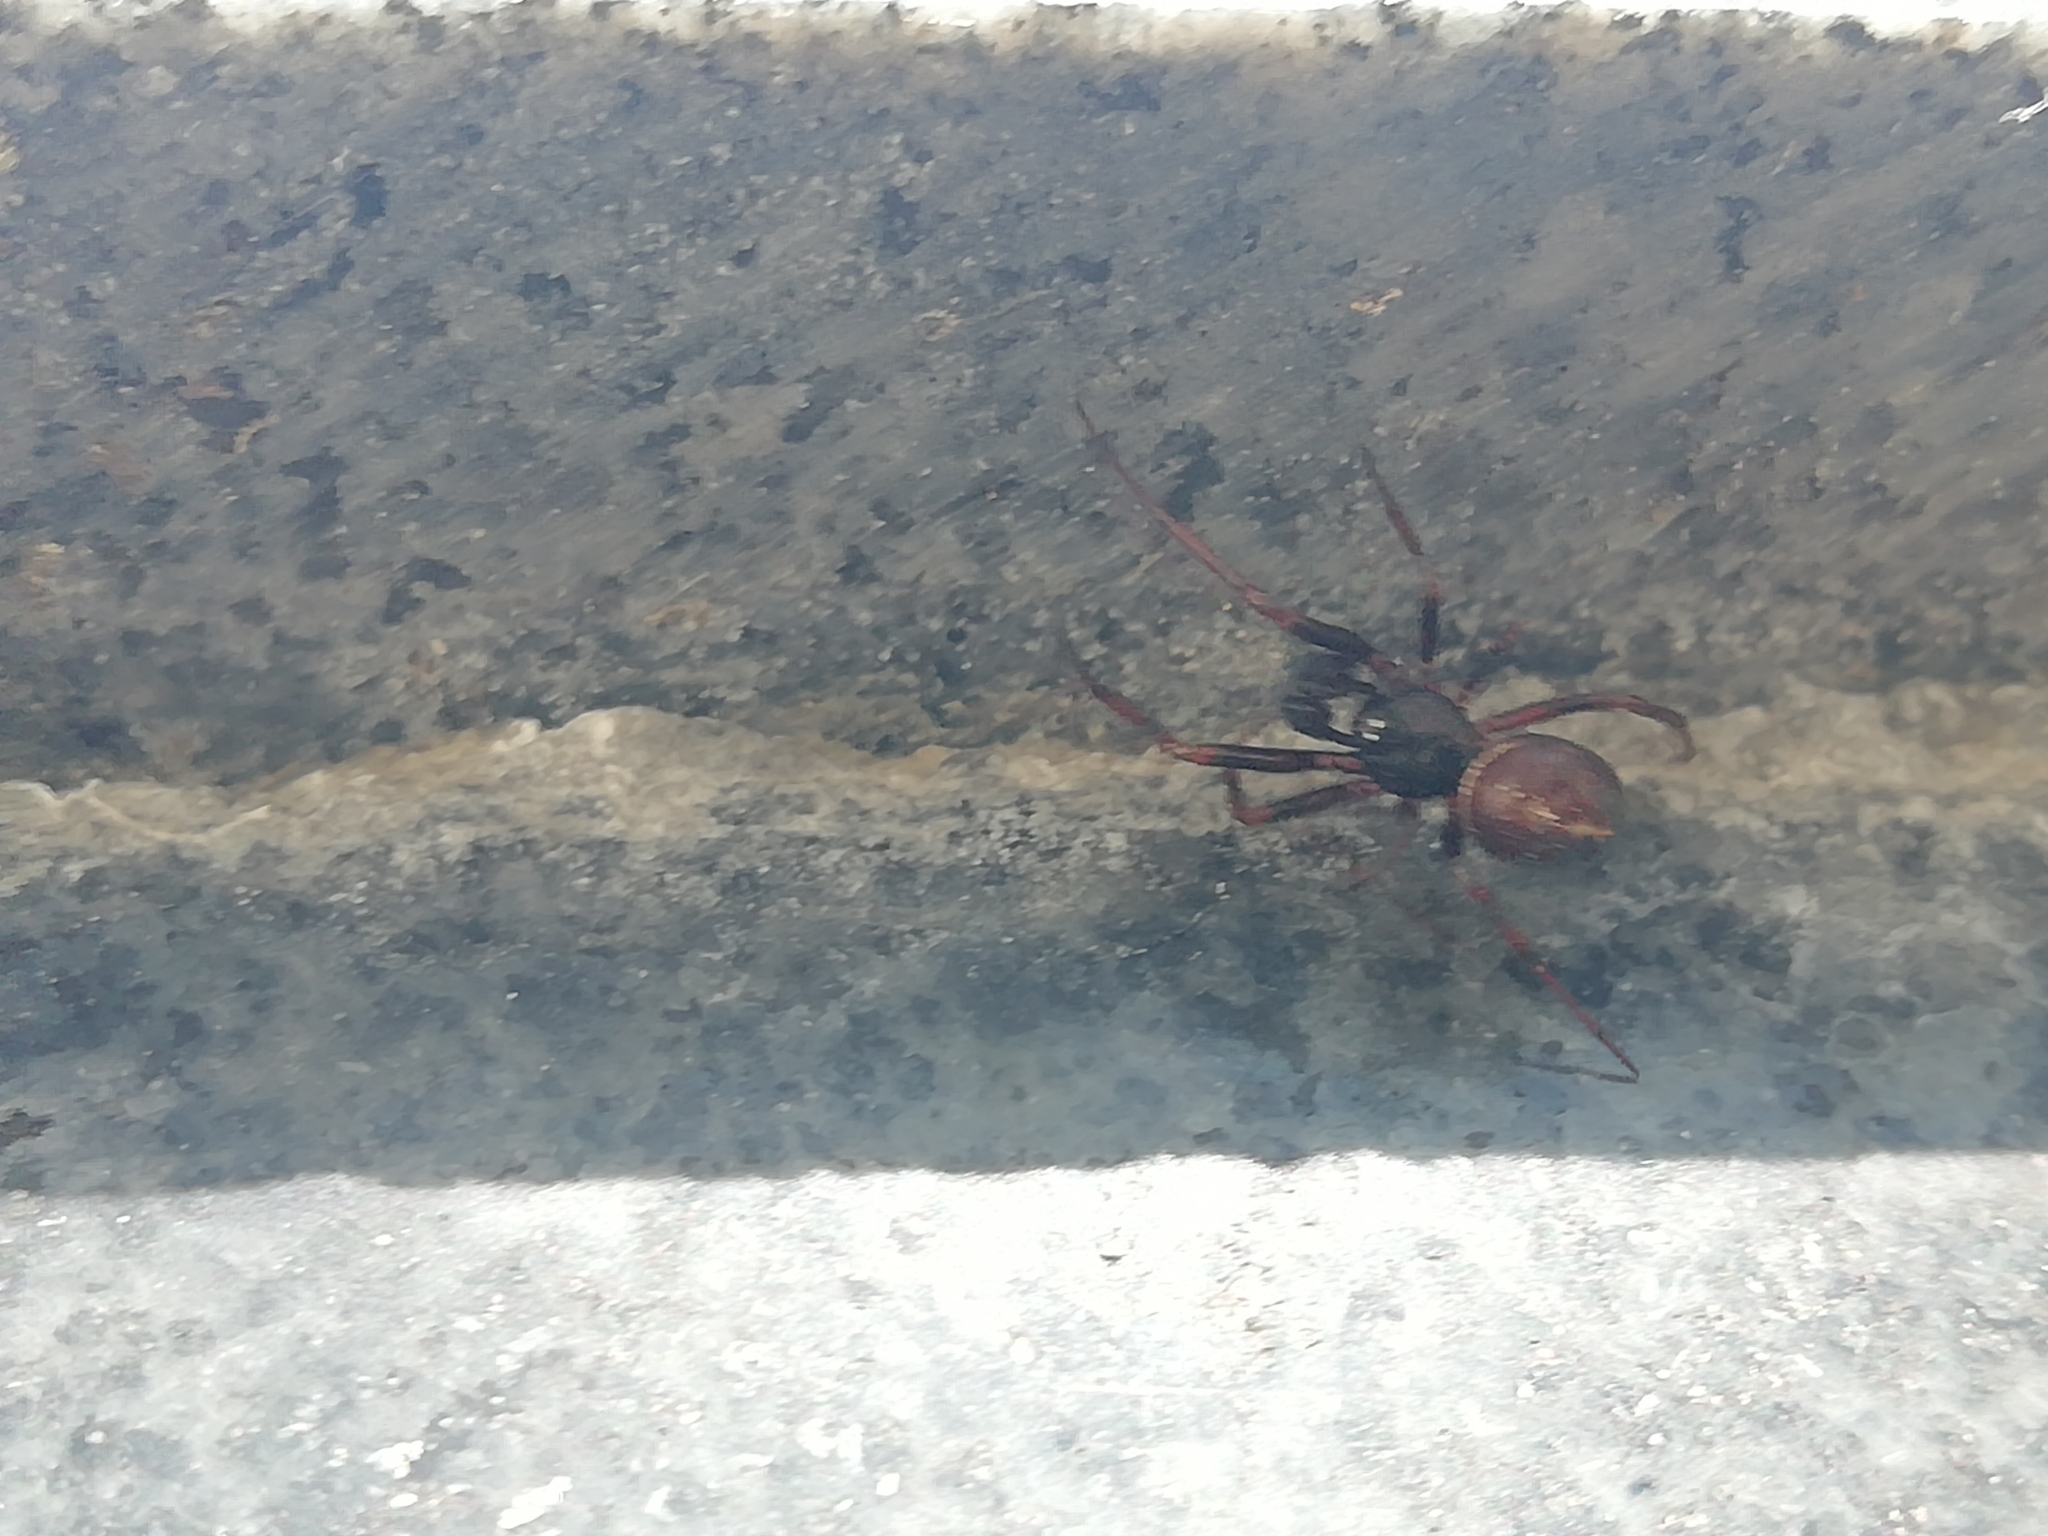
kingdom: Animalia
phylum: Arthropoda
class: Arachnida
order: Araneae
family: Theridiidae
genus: Steatoda
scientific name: Steatoda bipunctata
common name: False widow
